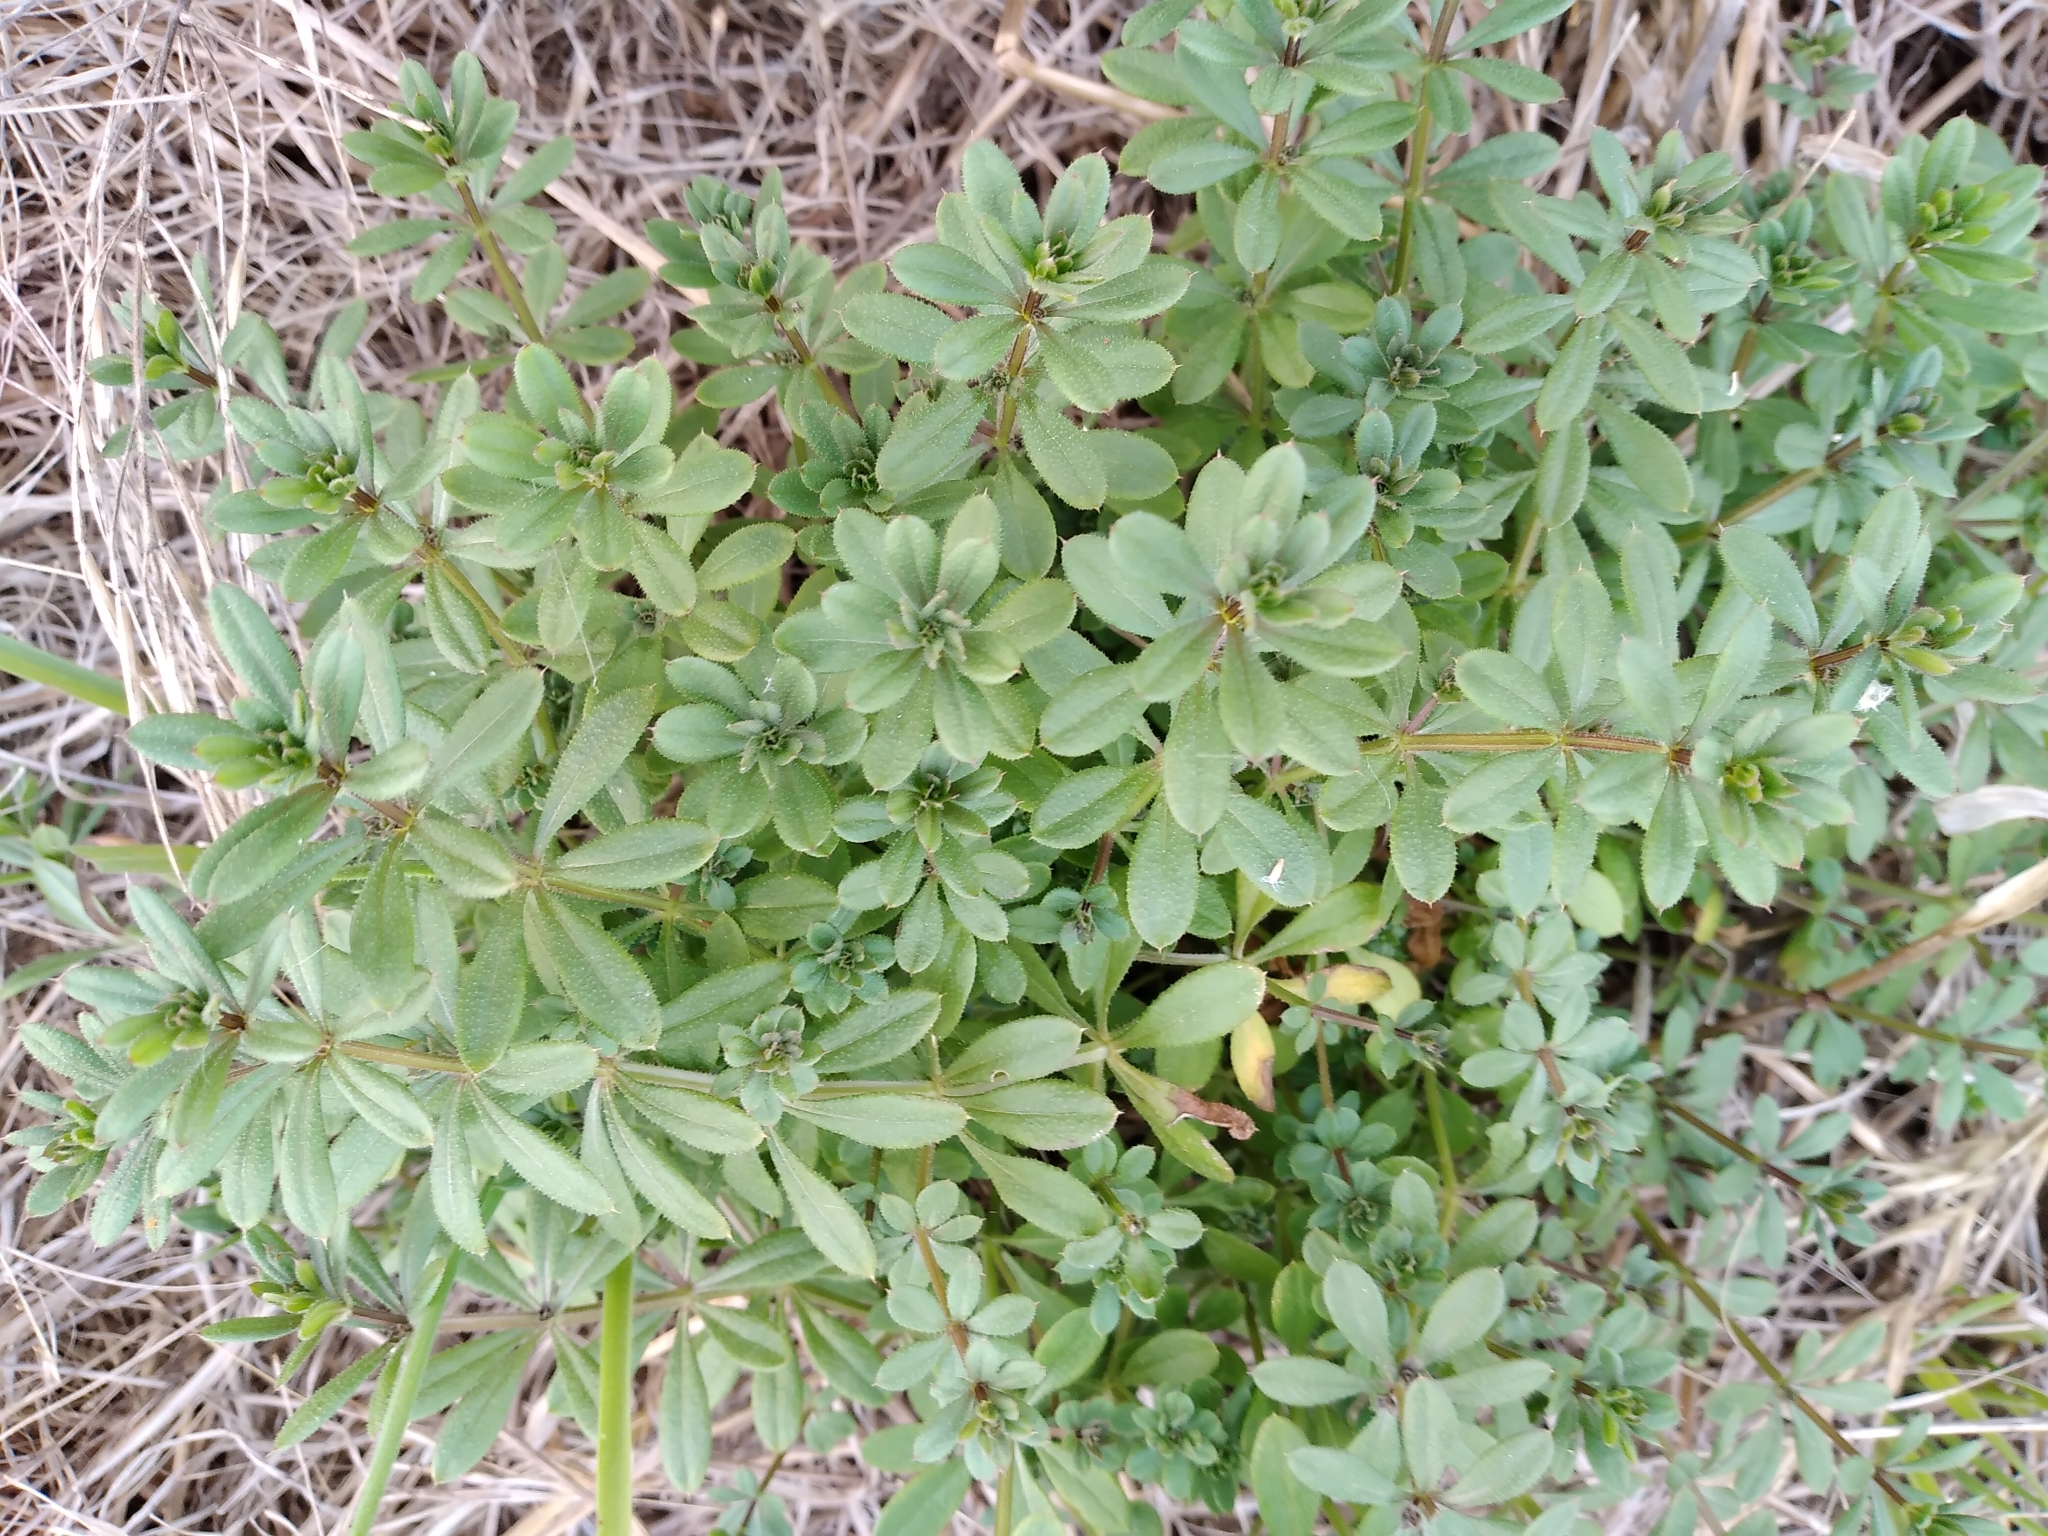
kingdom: Plantae
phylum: Tracheophyta
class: Magnoliopsida
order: Gentianales
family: Rubiaceae
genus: Galium
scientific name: Galium aparine
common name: Cleavers
